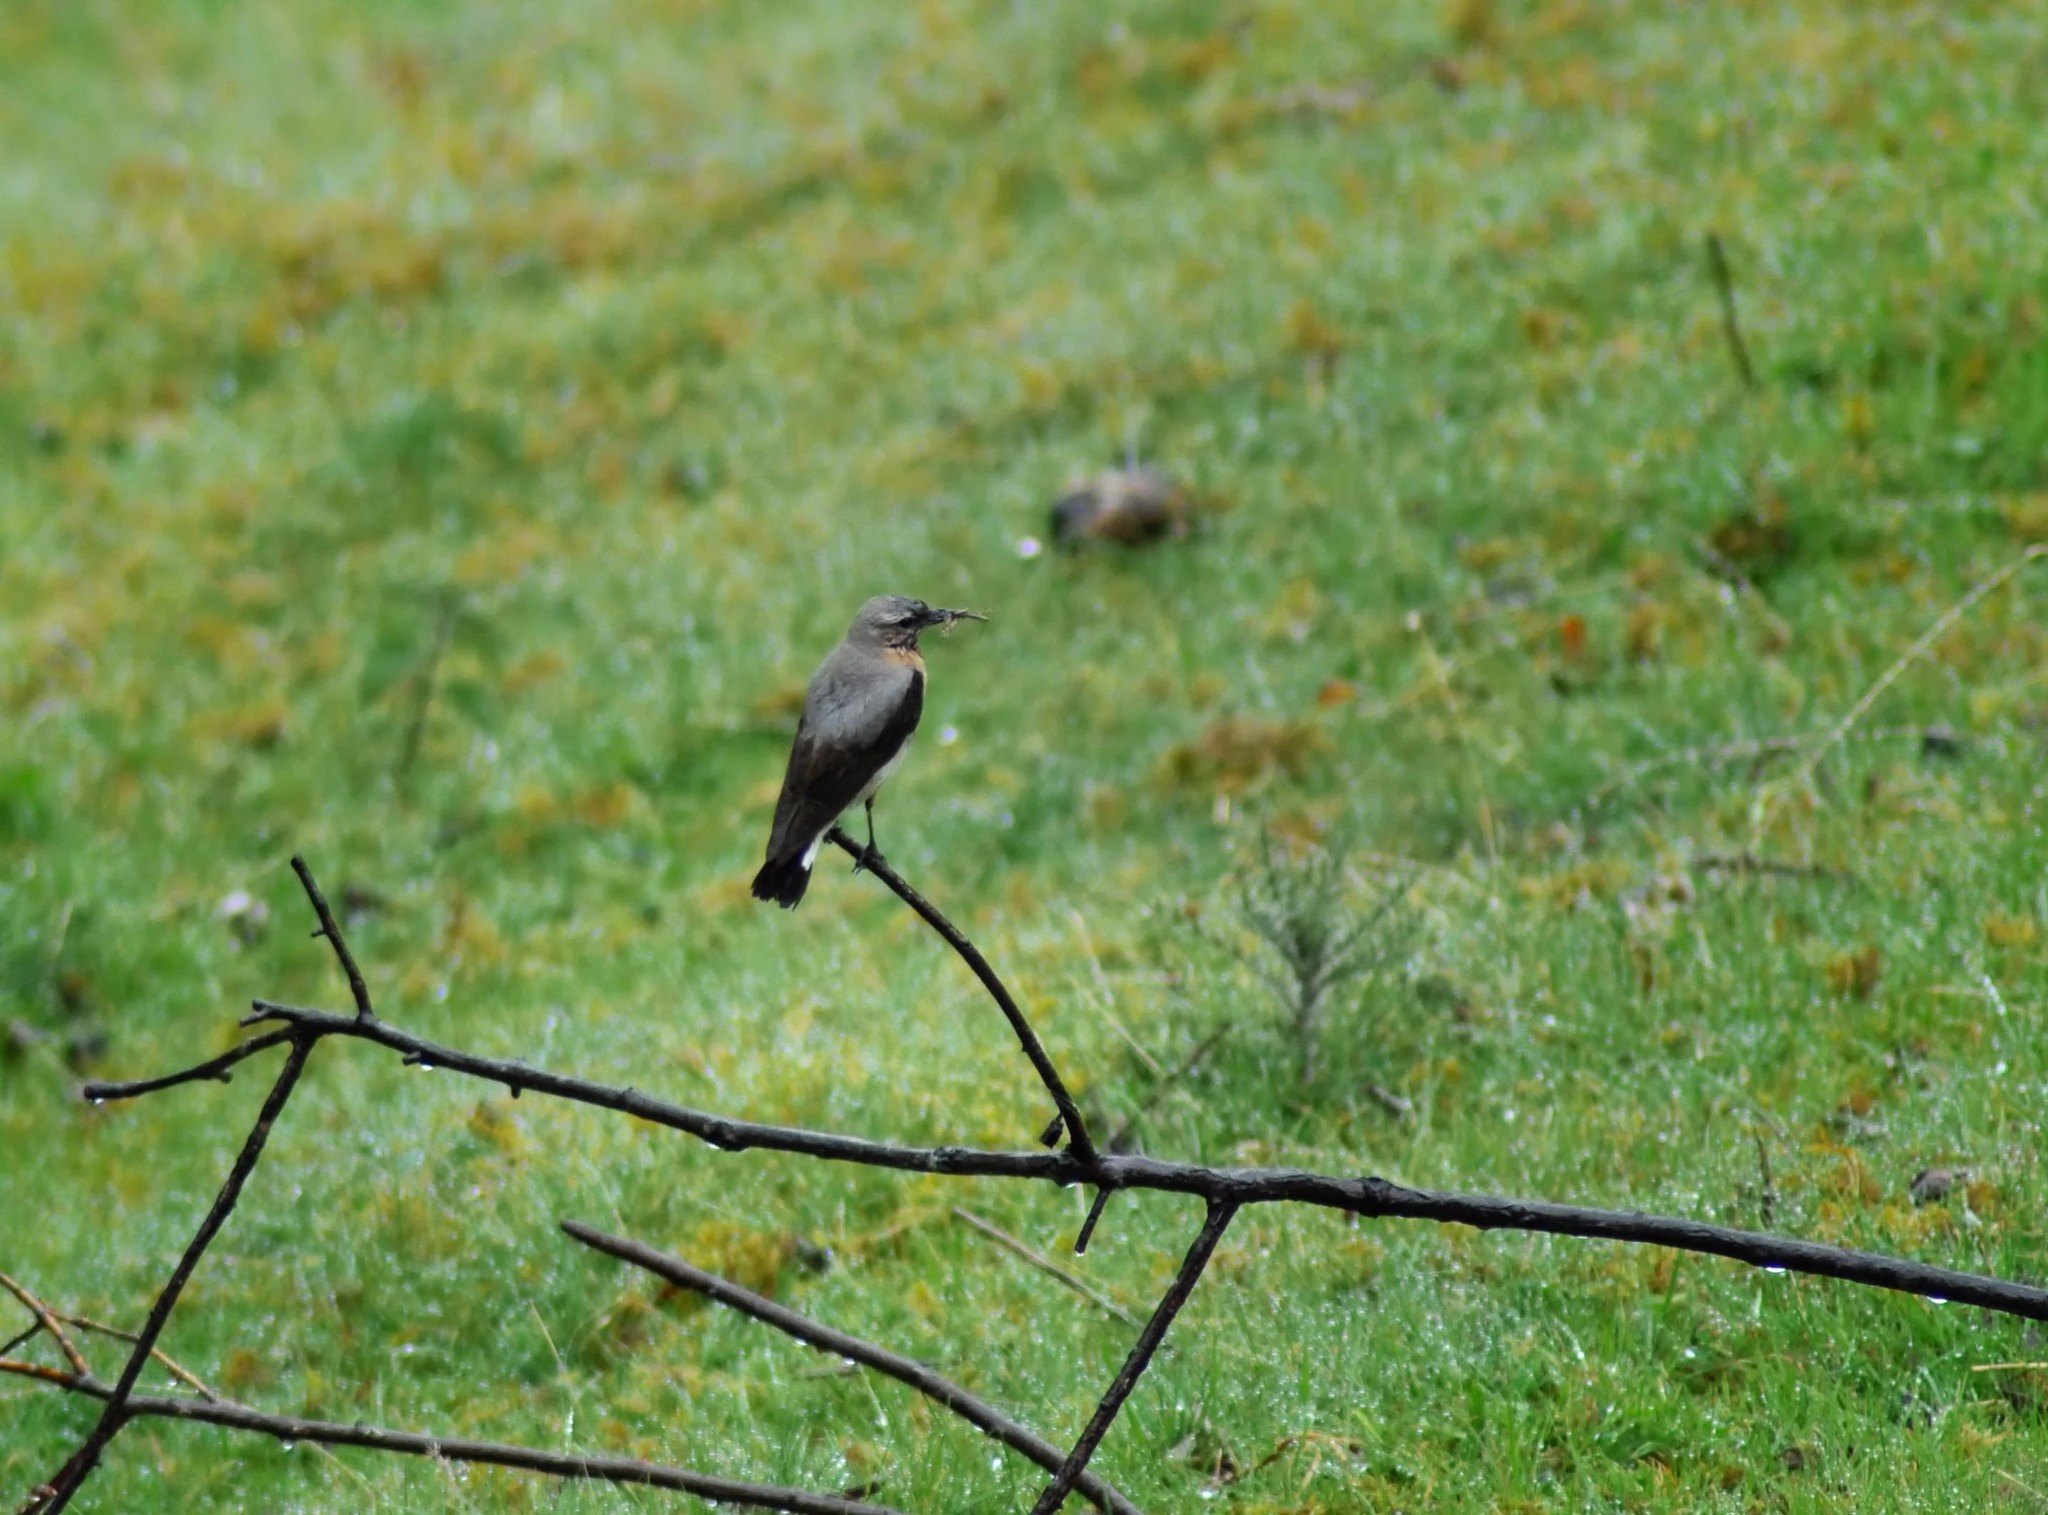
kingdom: Animalia
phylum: Chordata
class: Aves
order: Passeriformes
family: Muscicapidae
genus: Oenanthe
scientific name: Oenanthe oenanthe
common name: Northern wheatear
